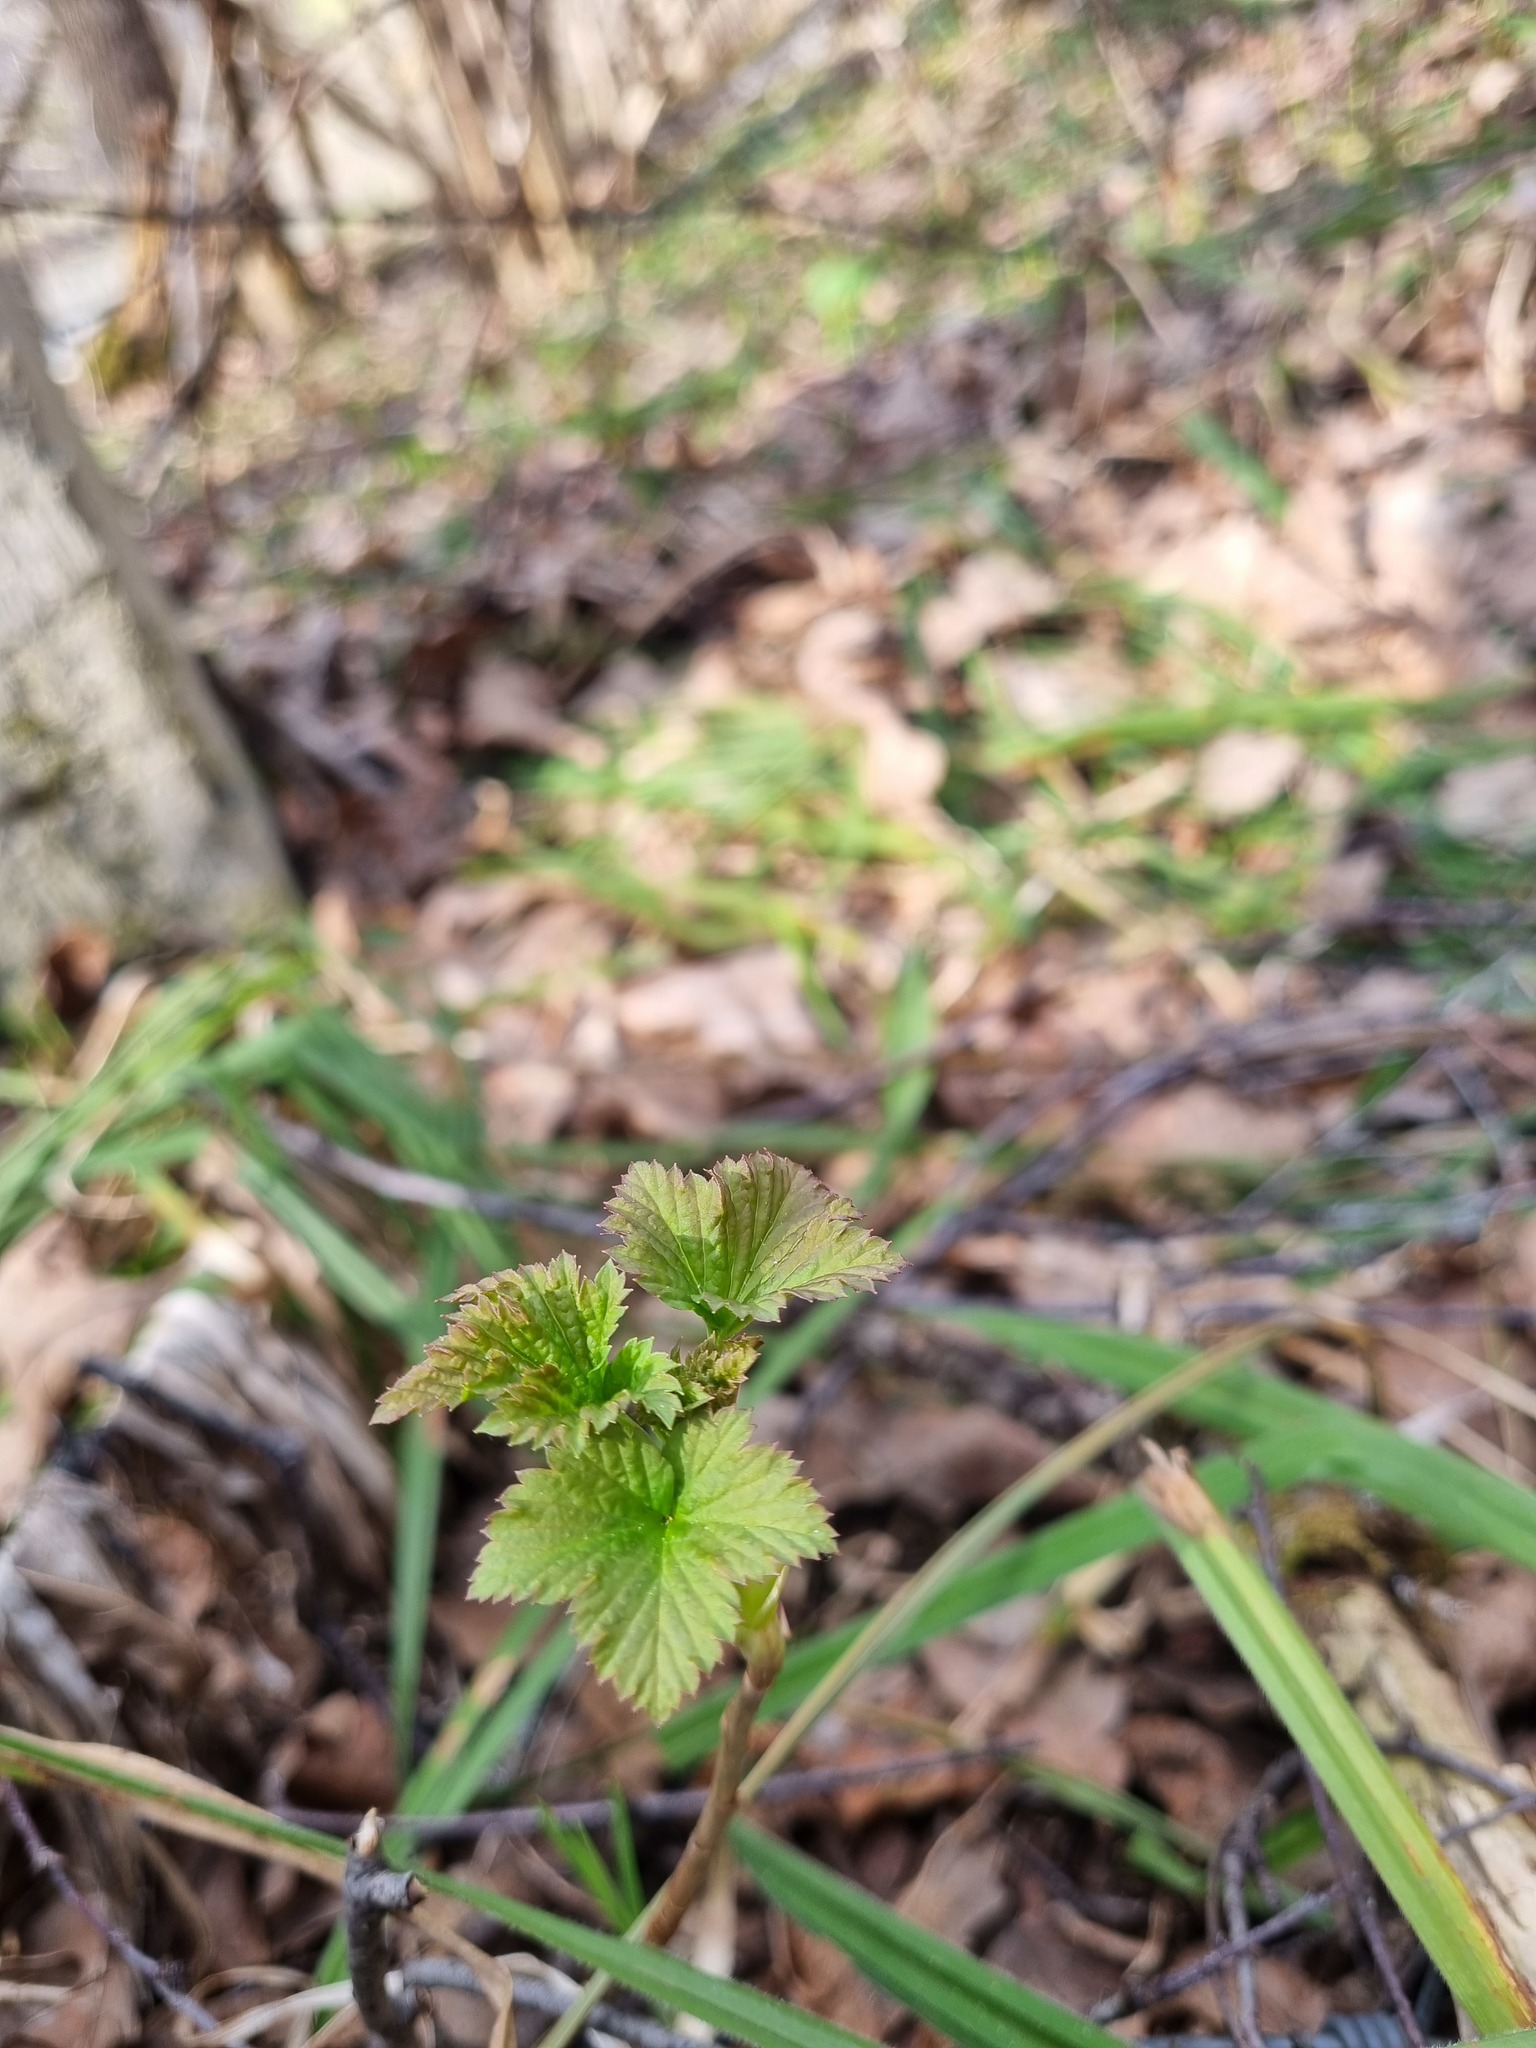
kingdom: Plantae
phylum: Tracheophyta
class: Magnoliopsida
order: Saxifragales
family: Grossulariaceae
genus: Ribes
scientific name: Ribes nigrum
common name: Black currant
